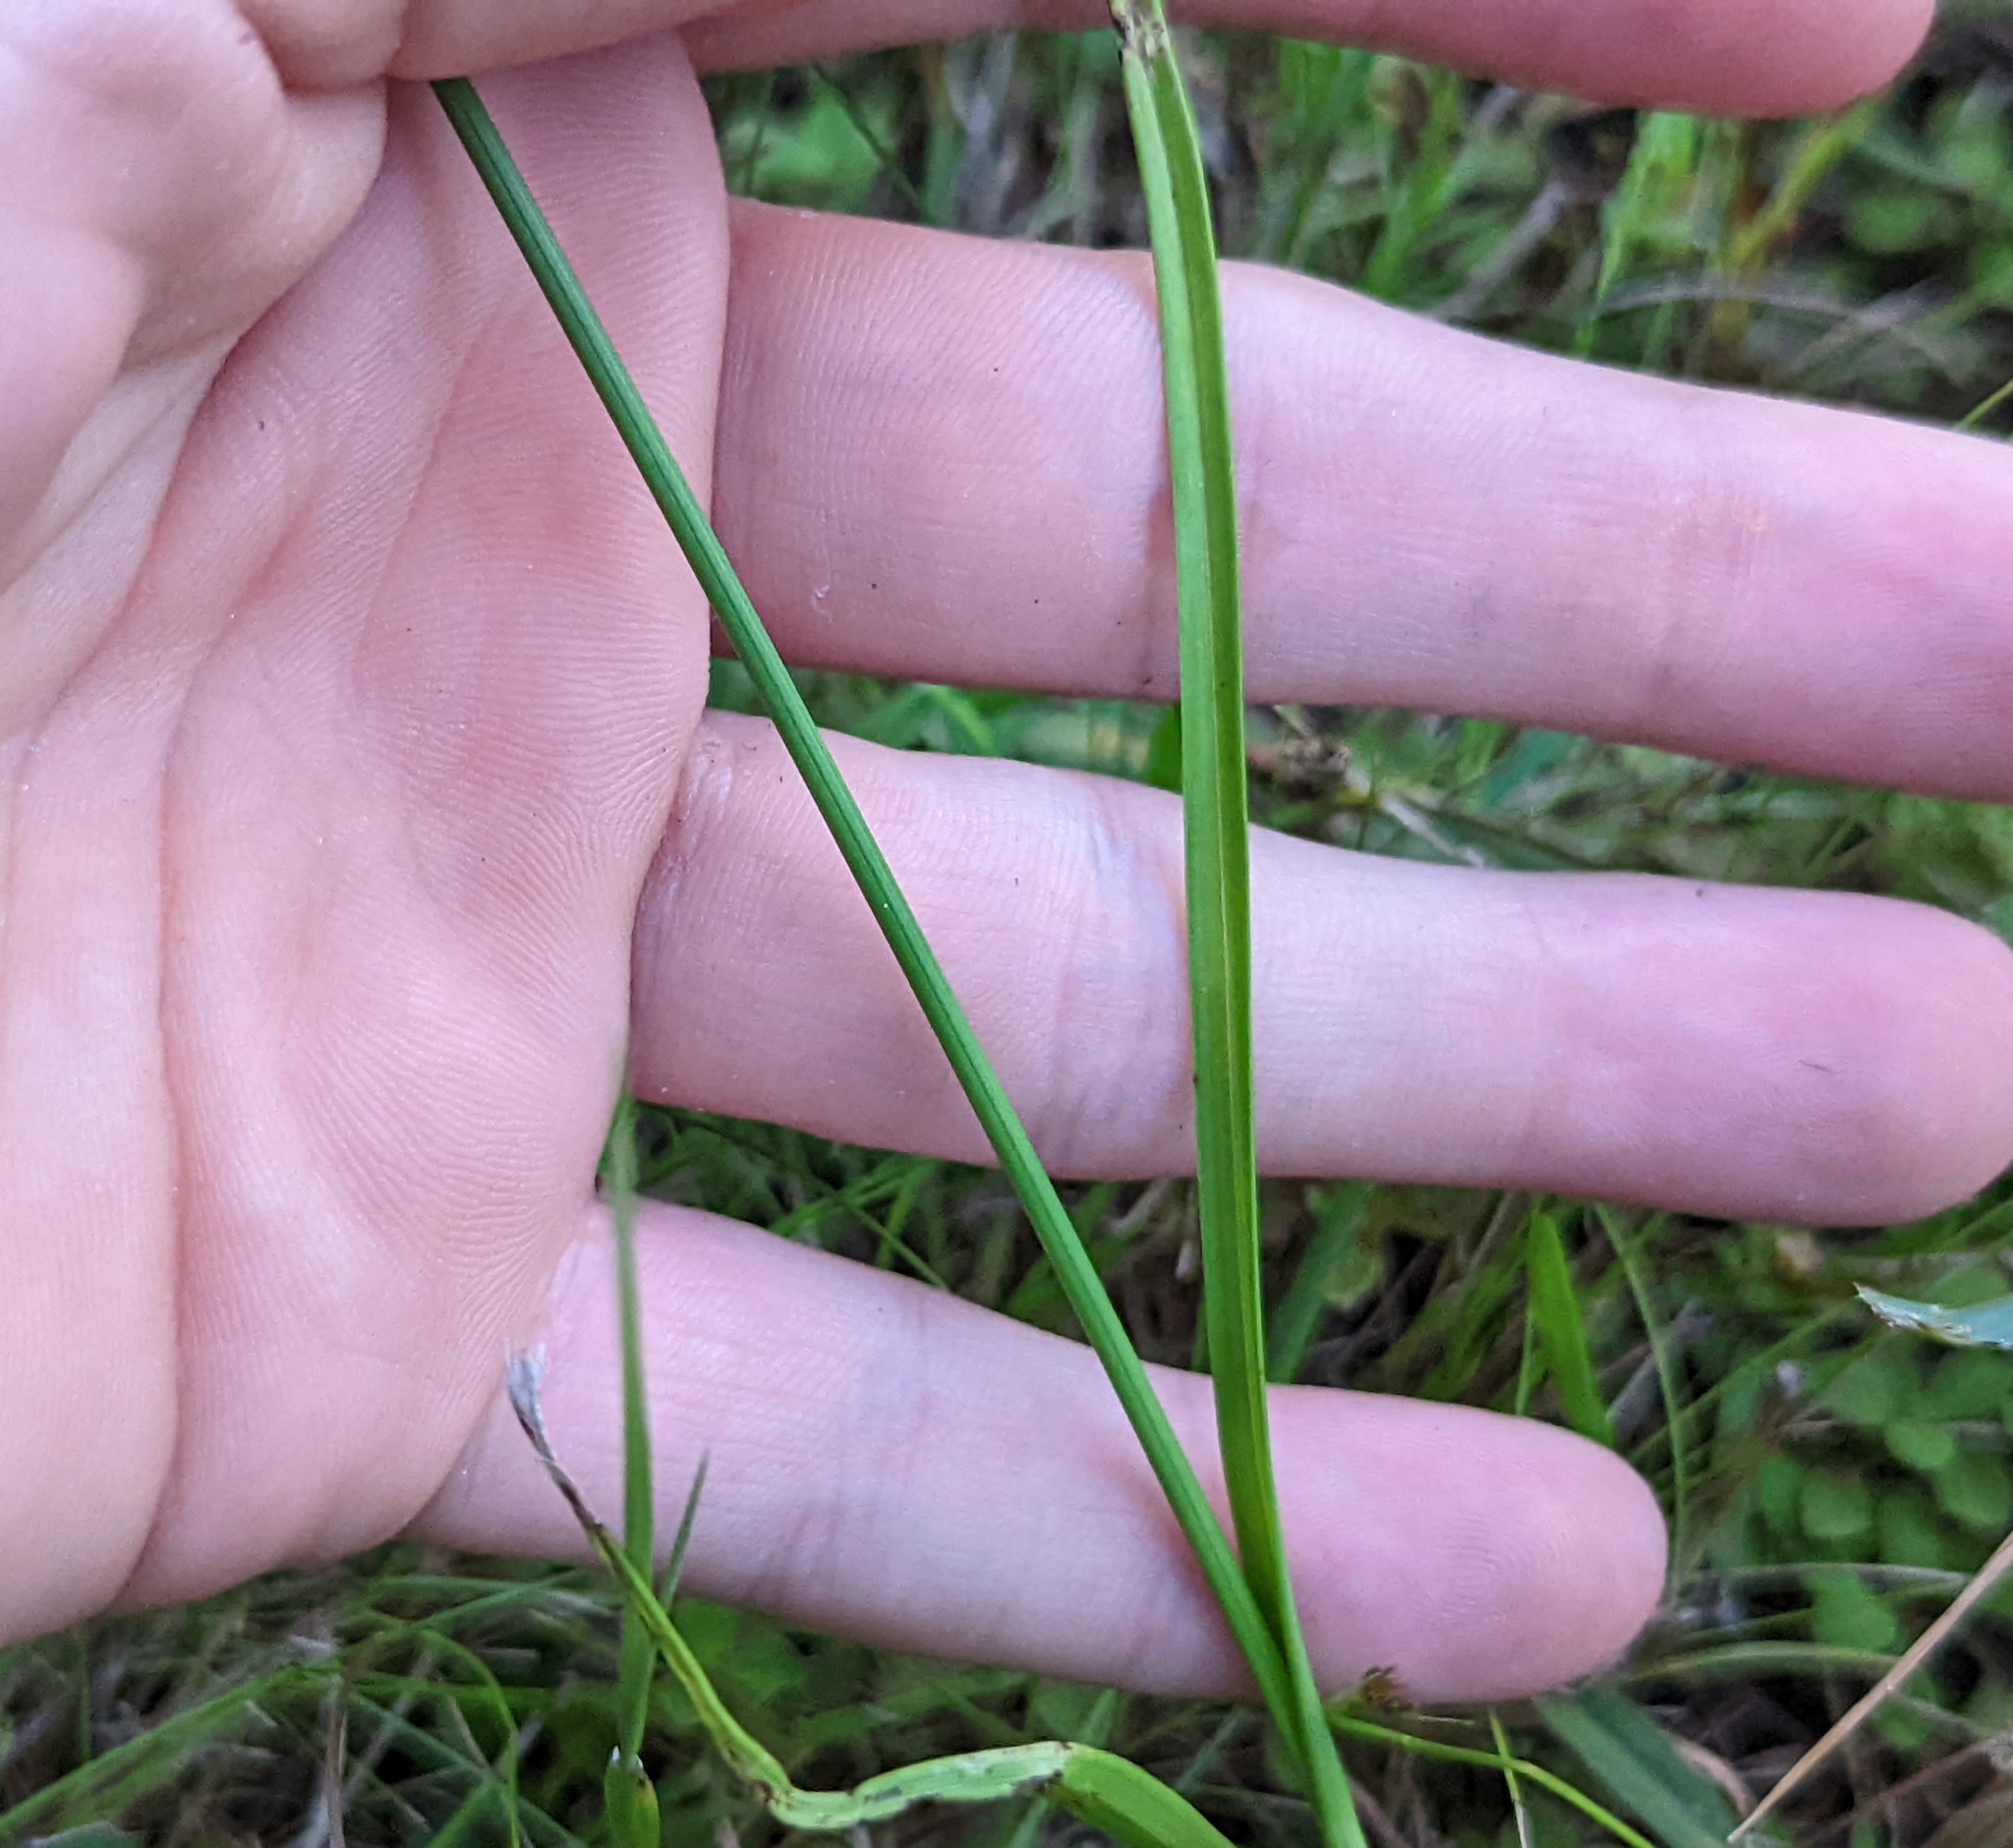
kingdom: Plantae
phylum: Tracheophyta
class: Liliopsida
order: Poales
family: Cyperaceae
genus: Rhynchospora
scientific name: Rhynchospora colorata
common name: Star sedge
